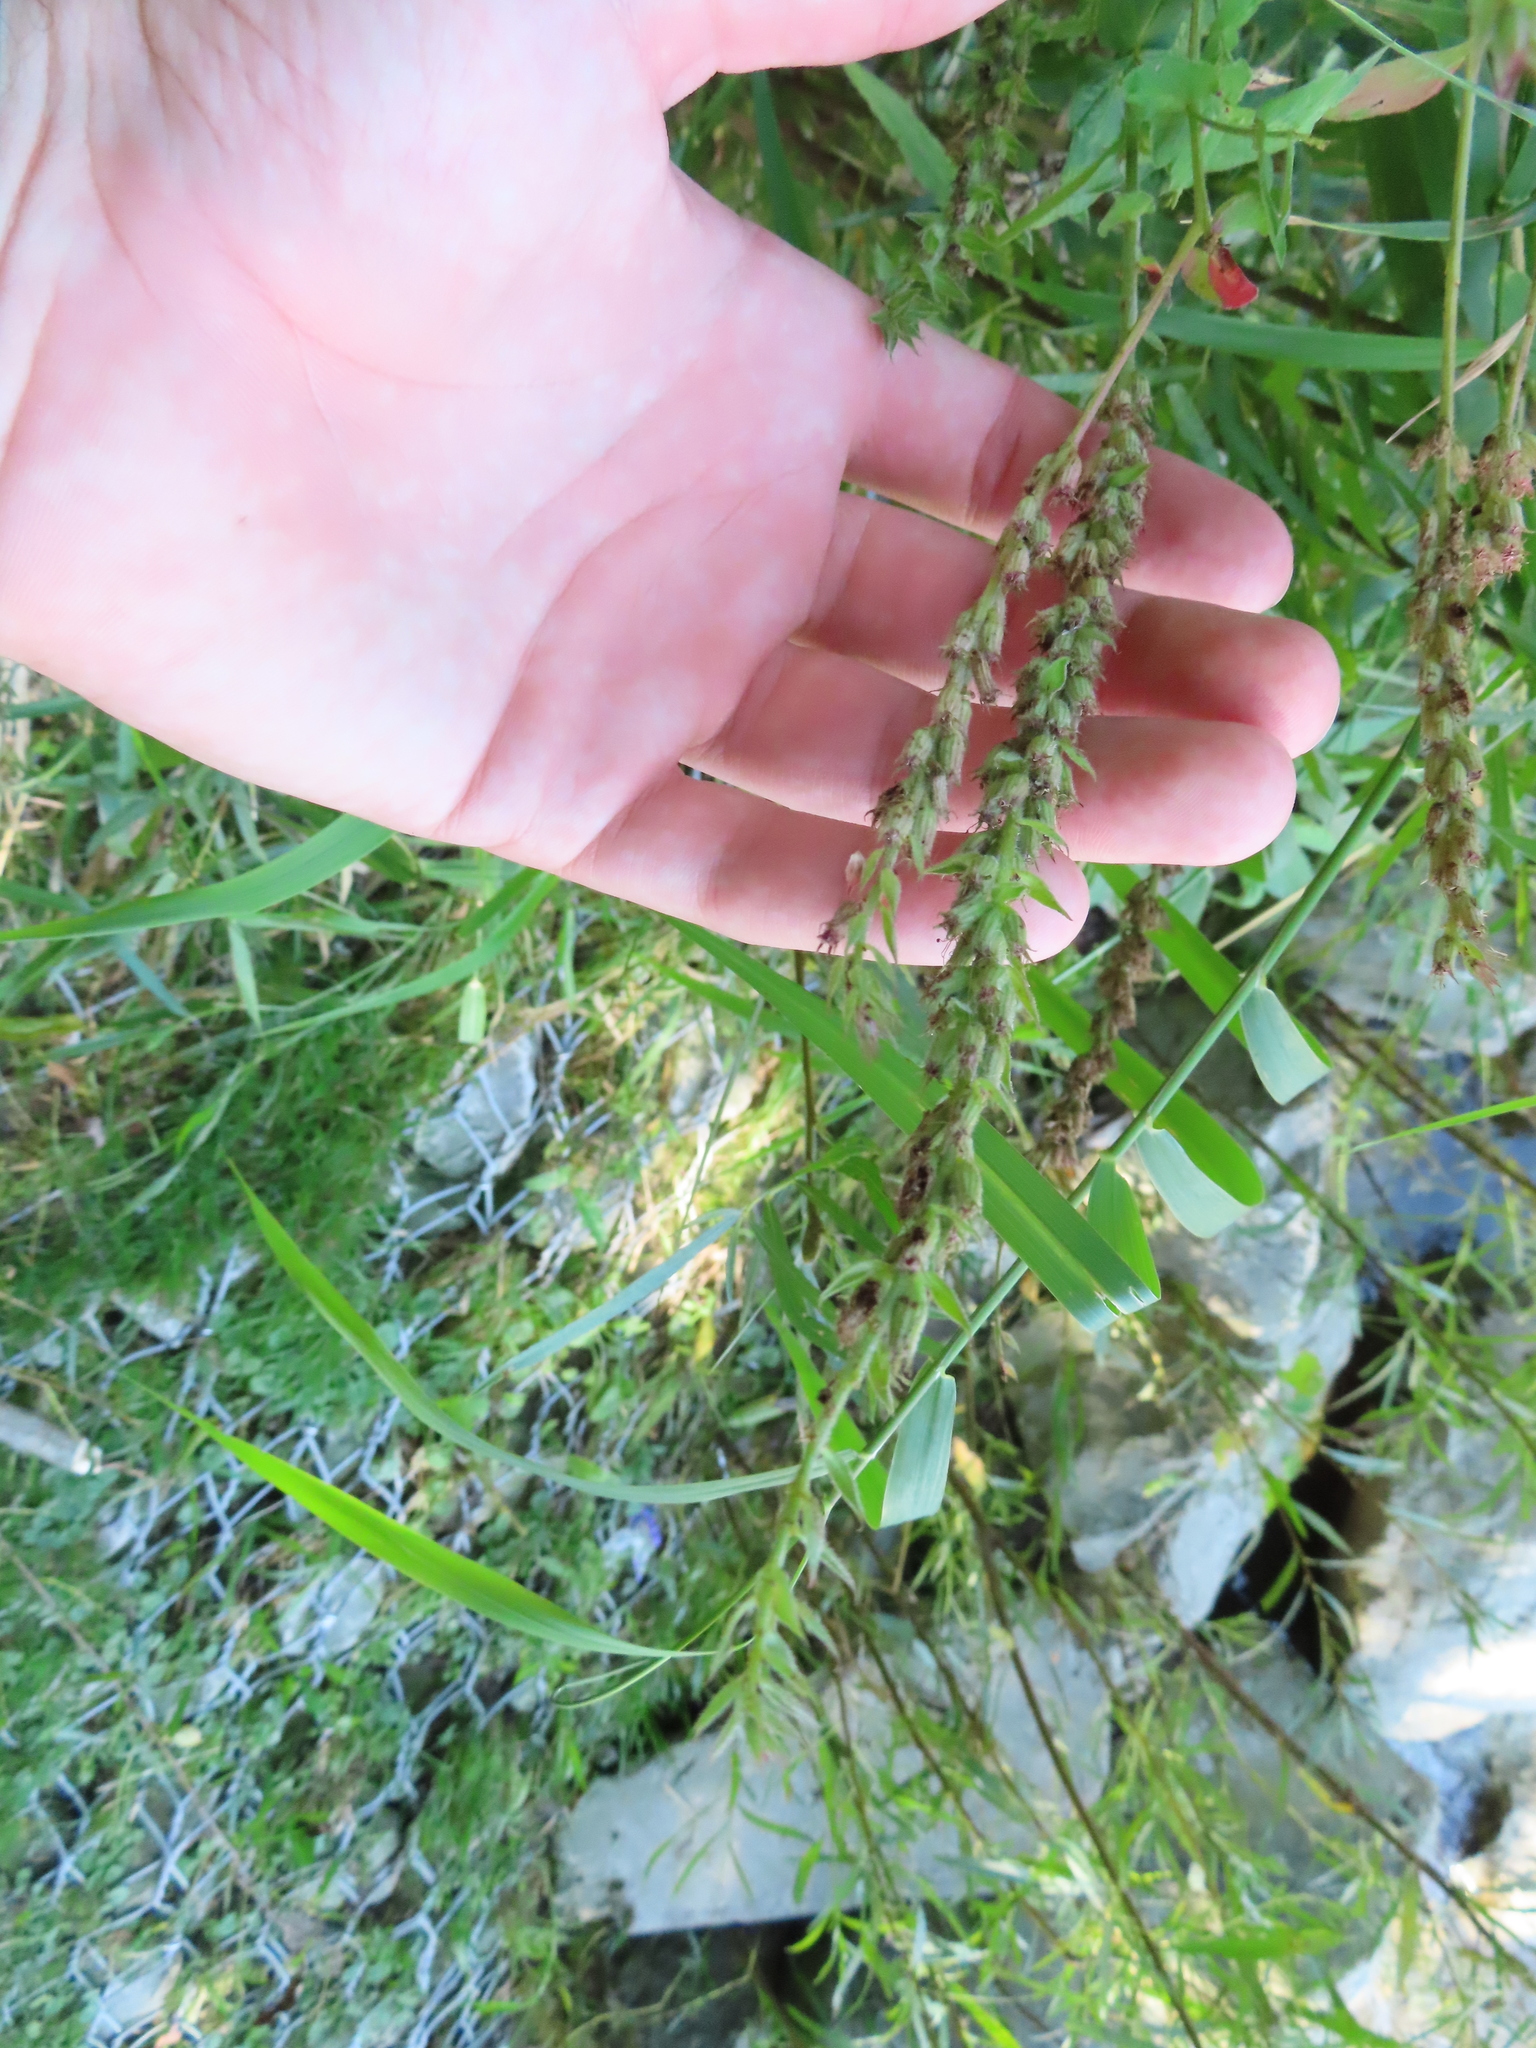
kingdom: Plantae
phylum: Tracheophyta
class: Magnoliopsida
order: Myrtales
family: Lythraceae
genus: Lythrum
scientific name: Lythrum salicaria
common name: Purple loosestrife
